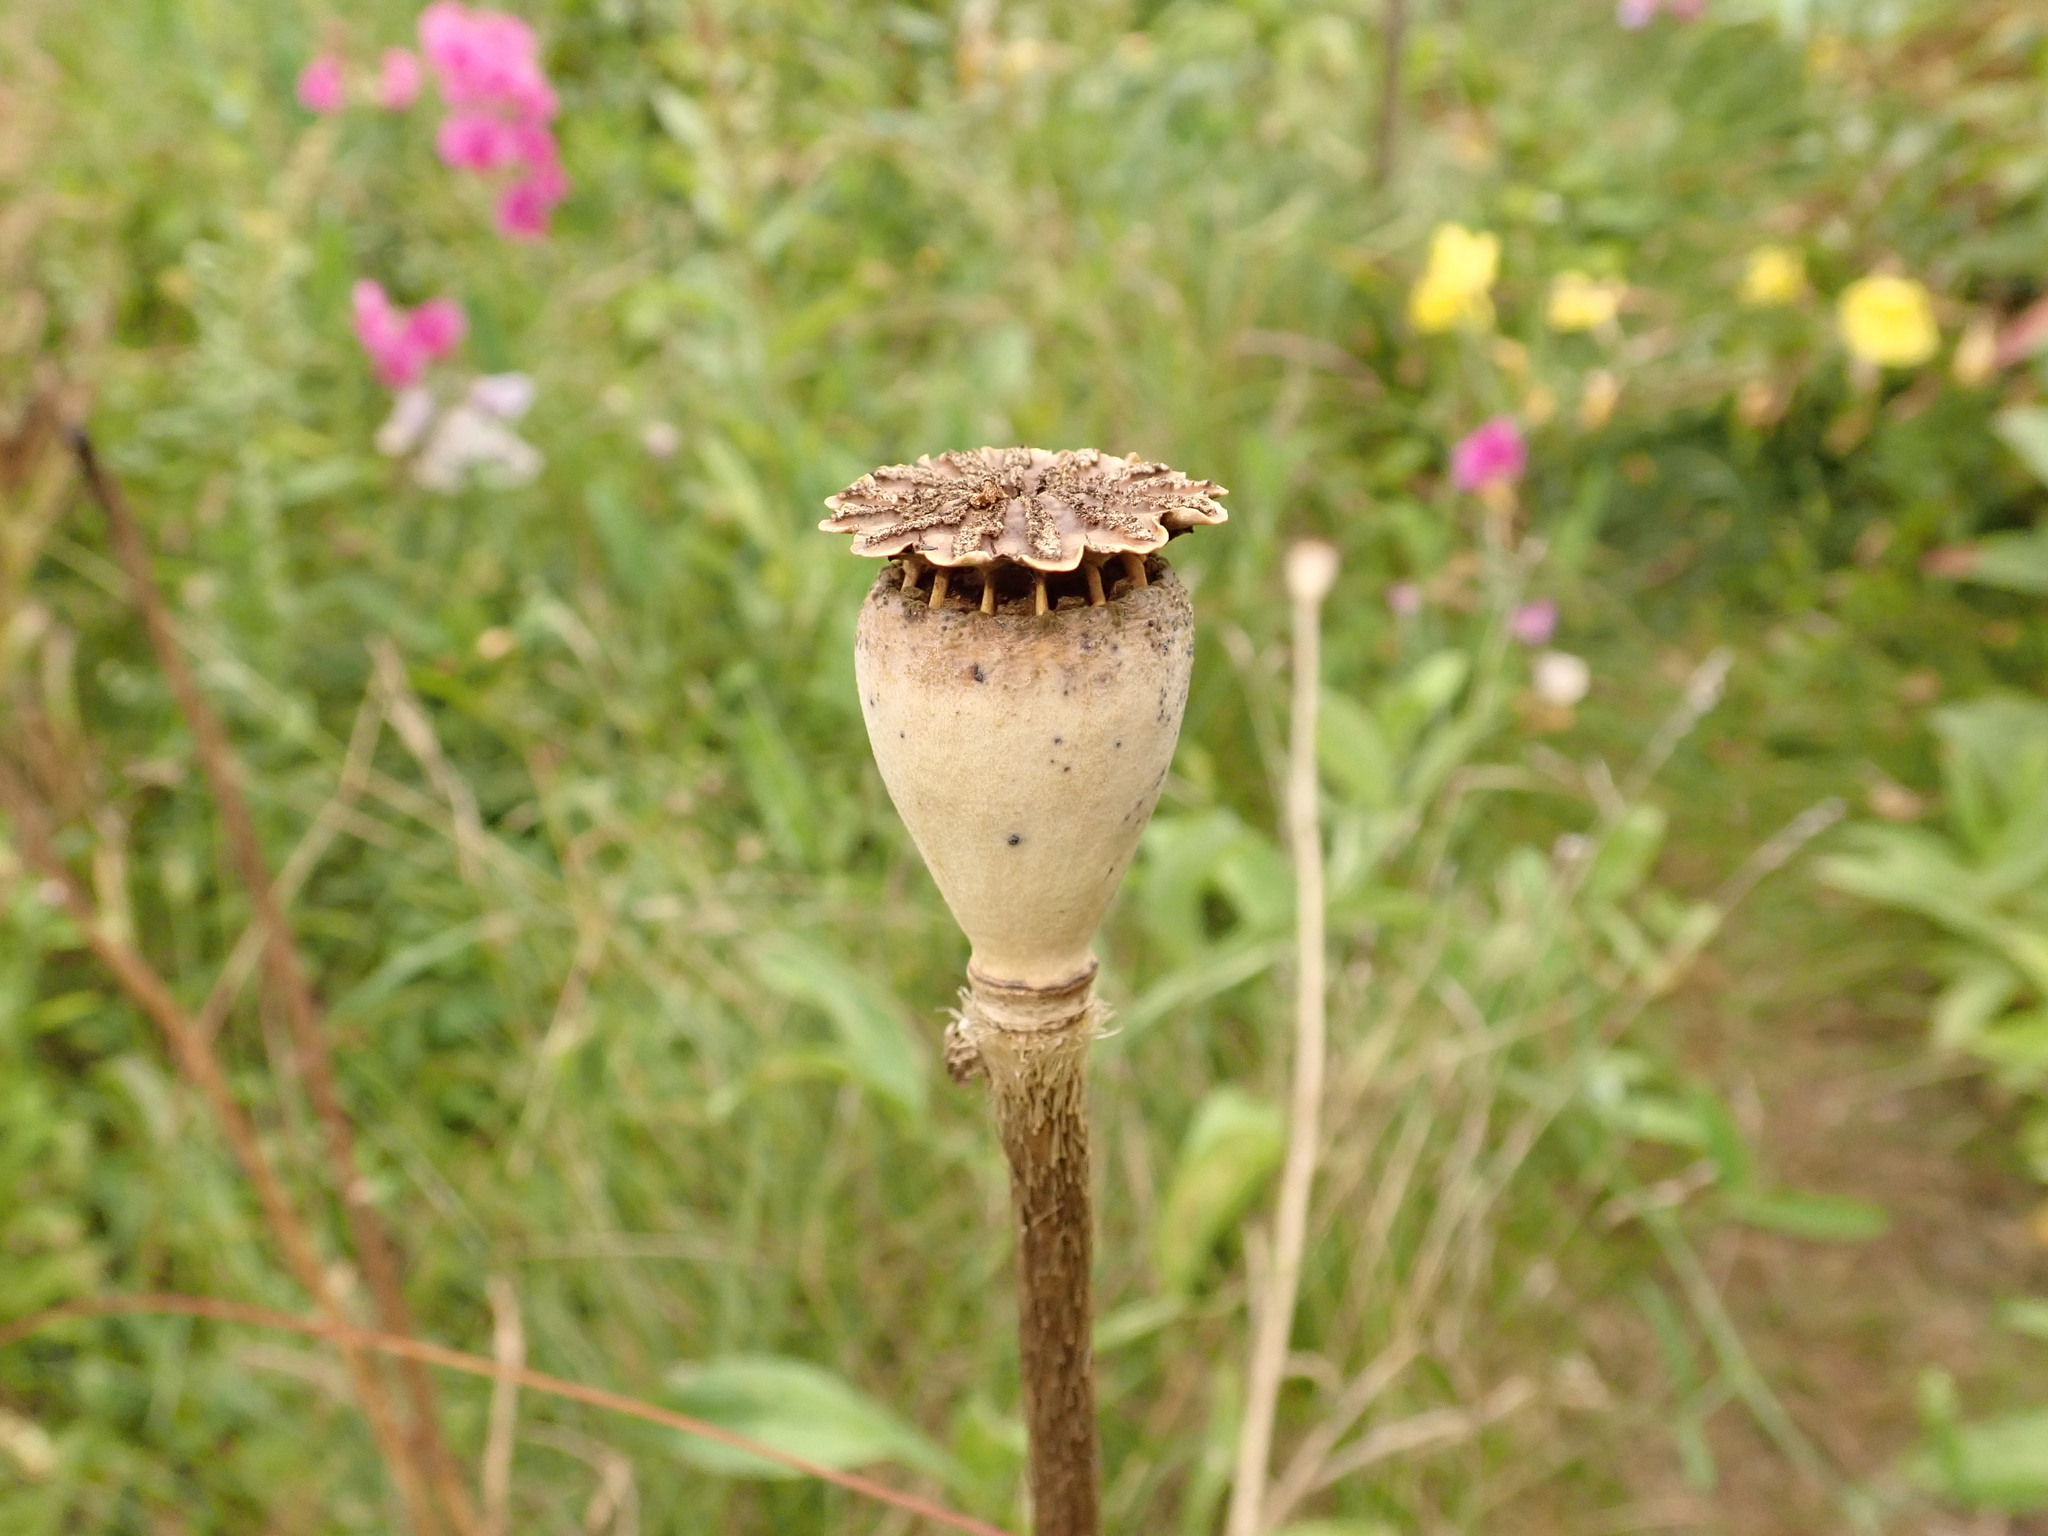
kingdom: Plantae
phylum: Tracheophyta
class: Magnoliopsida
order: Ranunculales
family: Papaveraceae
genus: Papaver
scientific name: Papaver rhoeas
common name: Corn poppy
